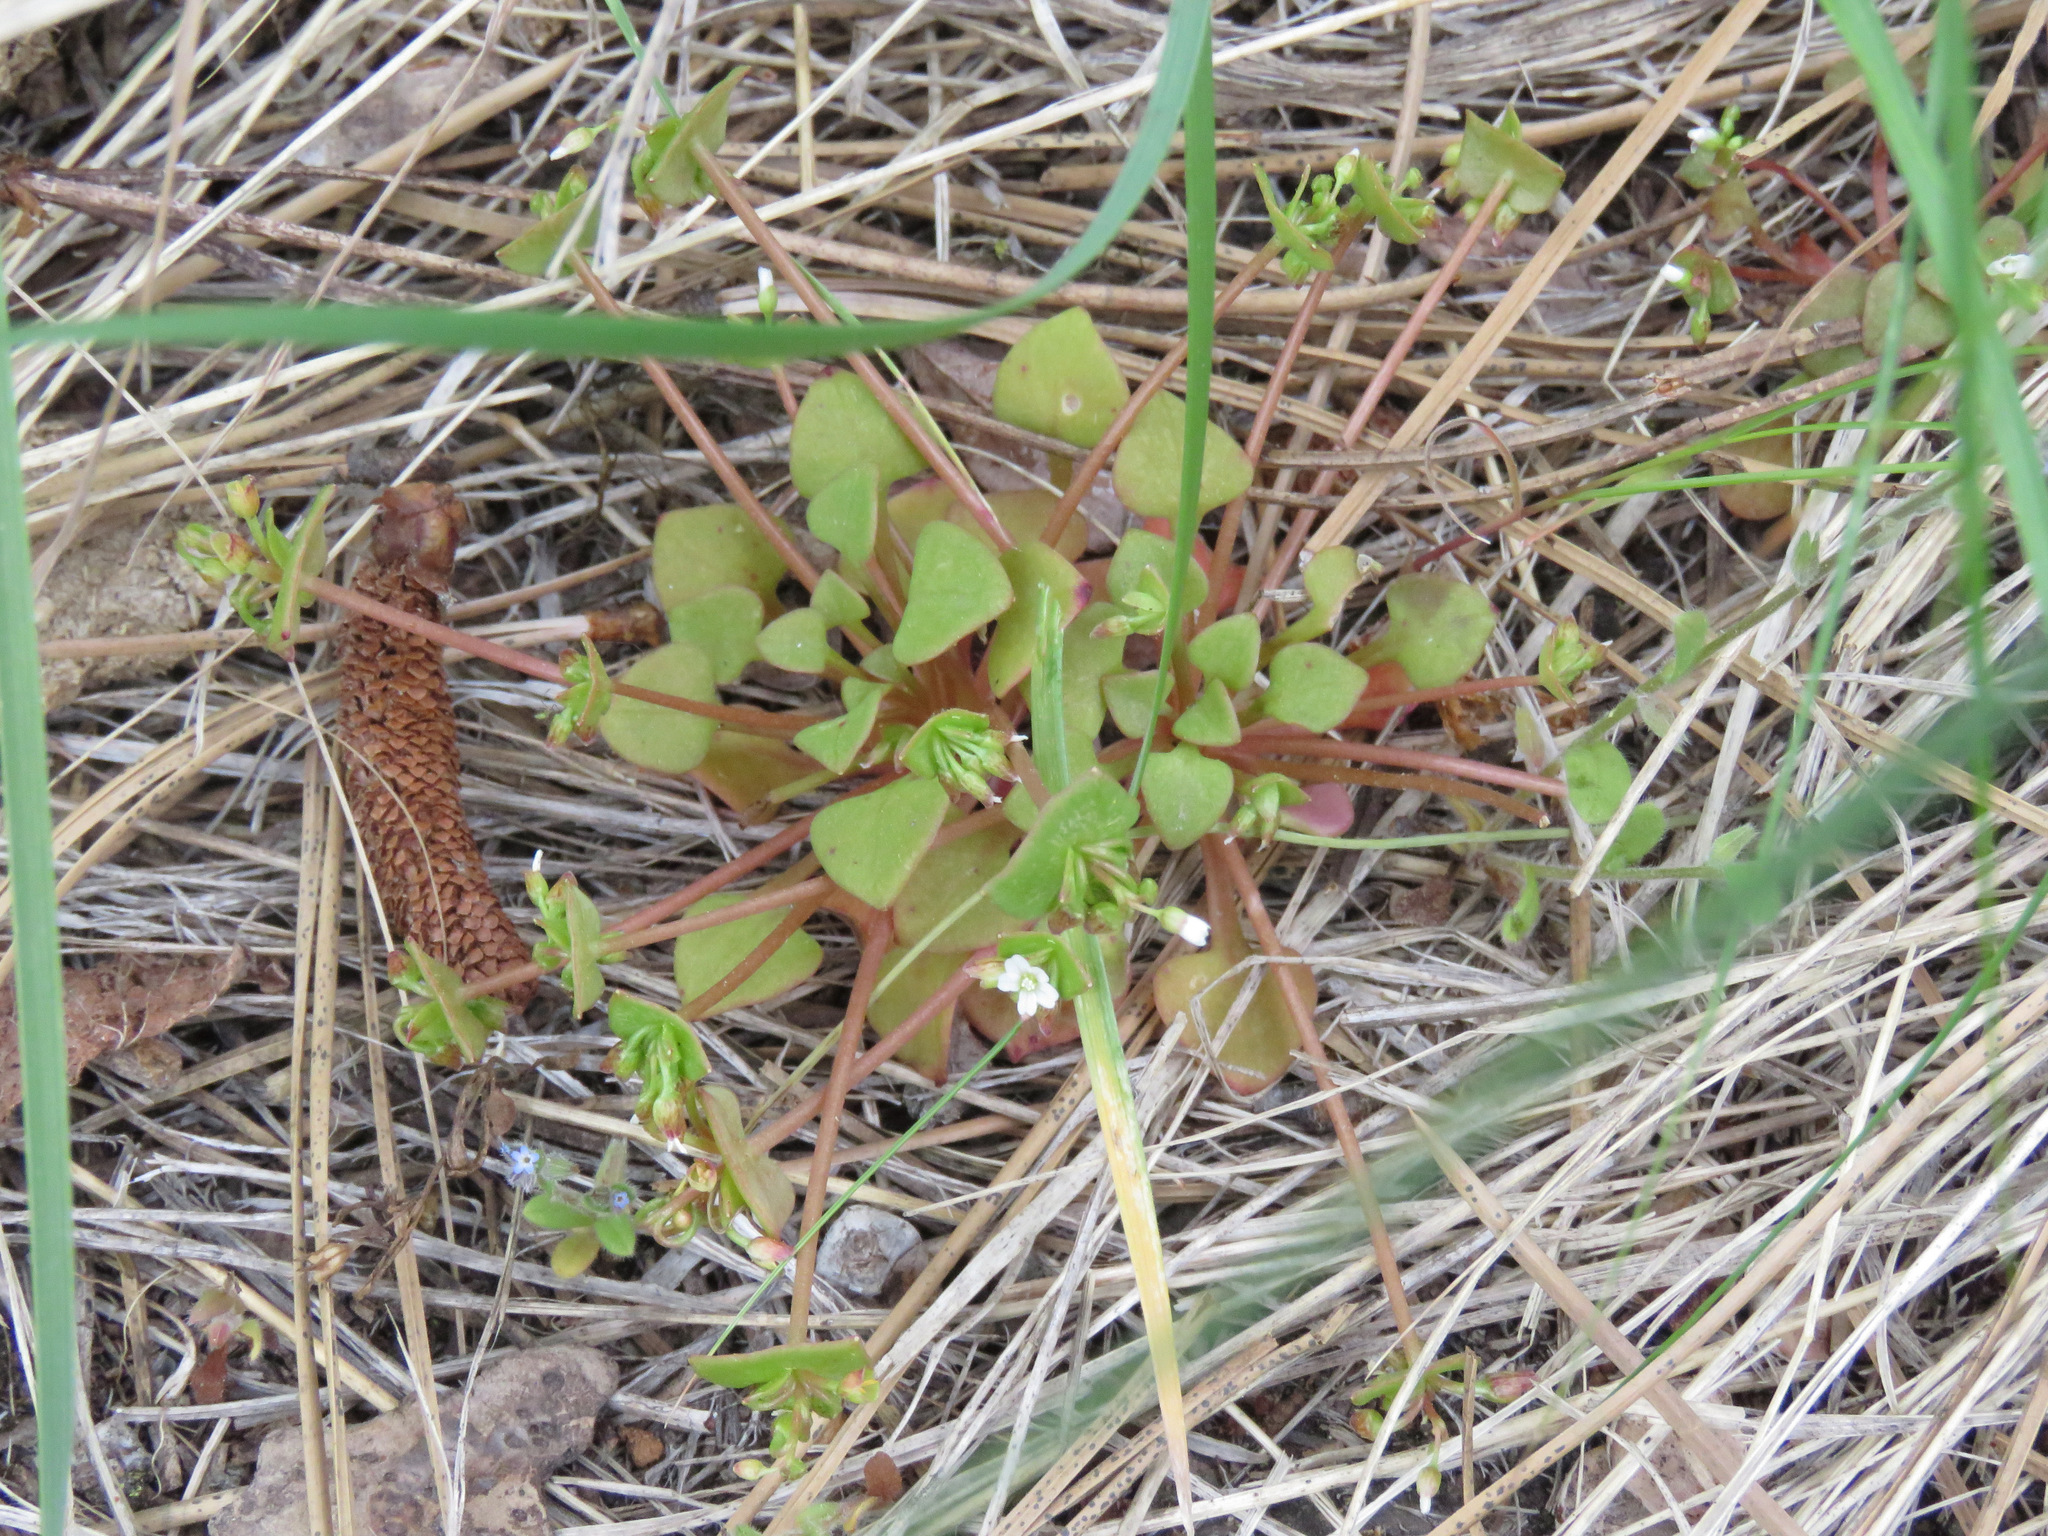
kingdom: Plantae
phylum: Tracheophyta
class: Magnoliopsida
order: Caryophyllales
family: Montiaceae
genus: Claytonia
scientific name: Claytonia rubra
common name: Erubescent miner's-lettuce
